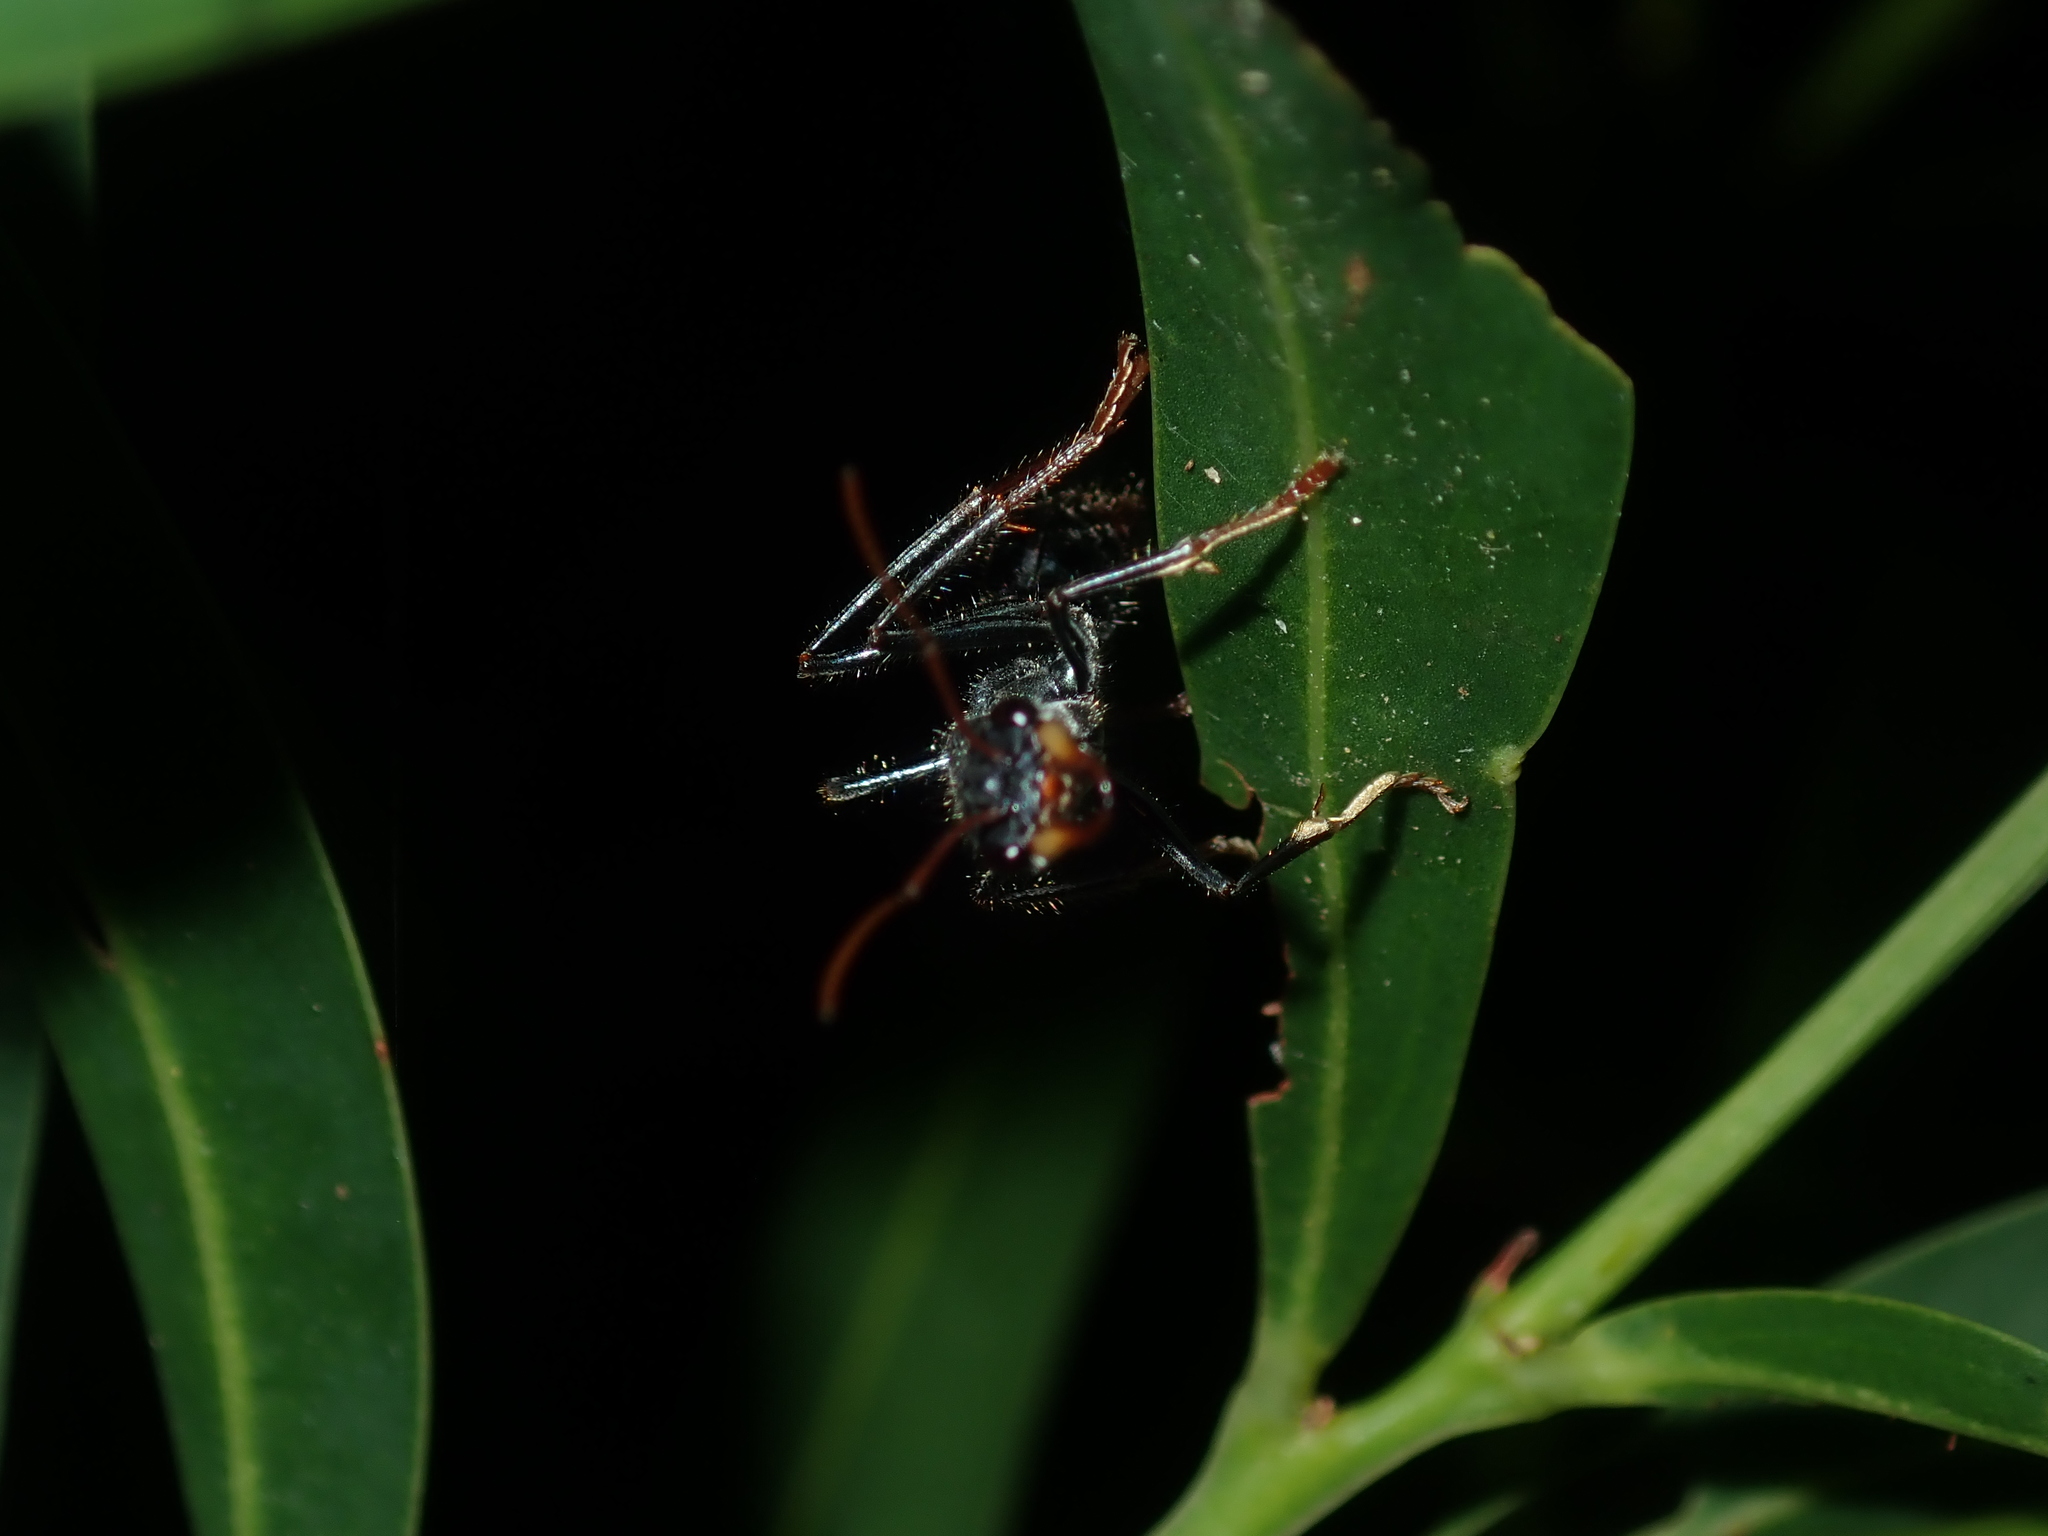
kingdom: Animalia
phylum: Arthropoda
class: Insecta
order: Hymenoptera
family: Formicidae
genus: Myrmecia
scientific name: Myrmecia tarsata
